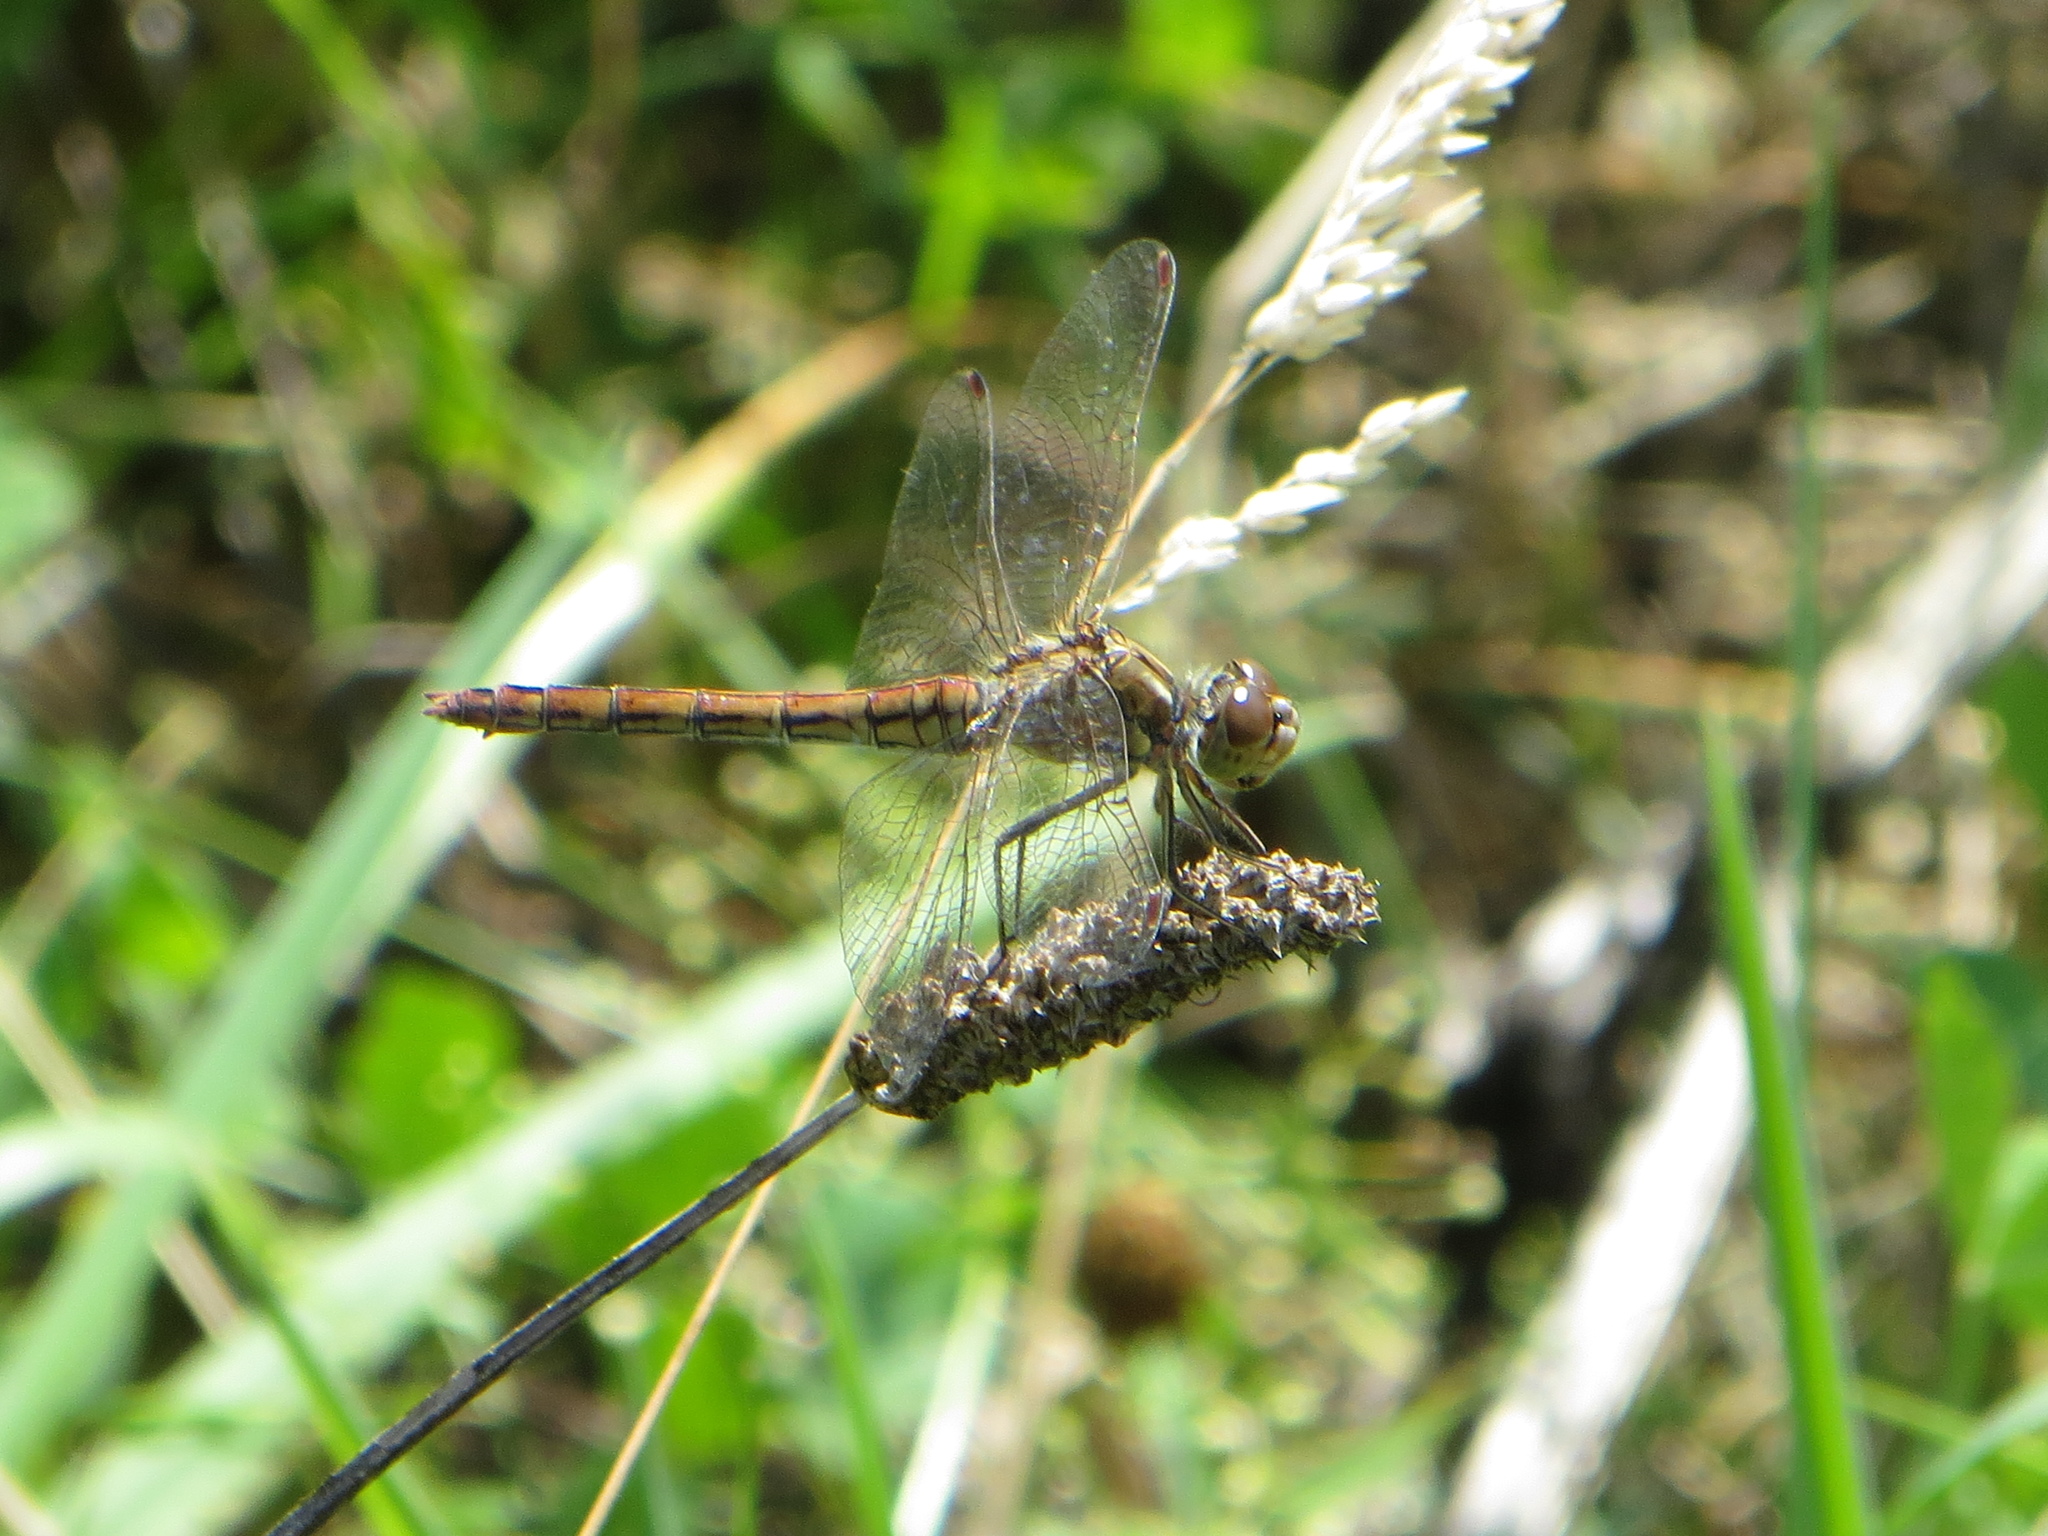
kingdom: Animalia
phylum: Arthropoda
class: Insecta
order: Odonata
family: Libellulidae
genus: Sympetrum
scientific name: Sympetrum vulgatum
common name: Vagrant darter
